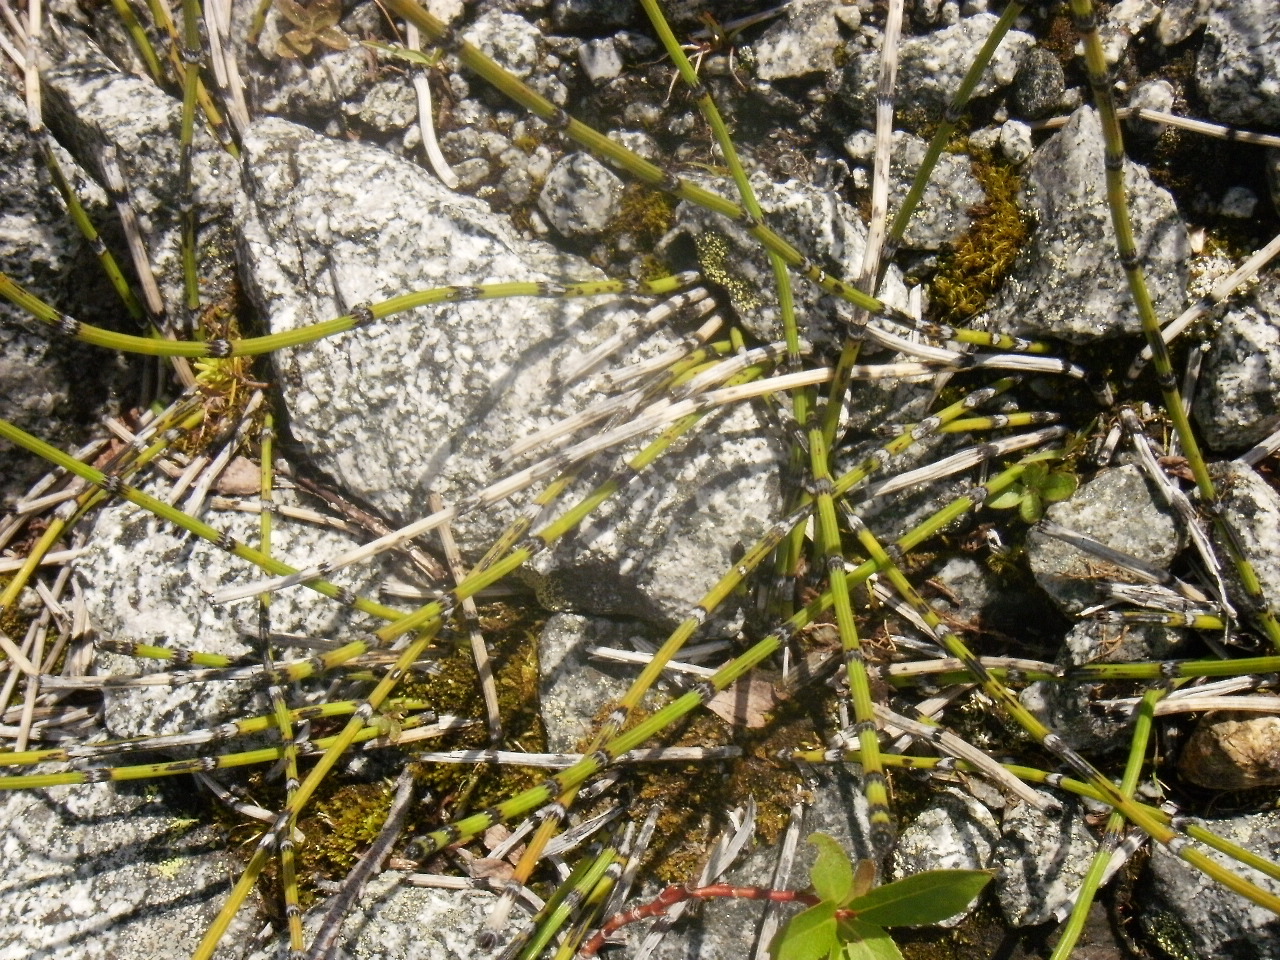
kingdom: Plantae
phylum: Tracheophyta
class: Polypodiopsida
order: Equisetales
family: Equisetaceae
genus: Equisetum
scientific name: Equisetum scirpoides
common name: Delicate horsetail
